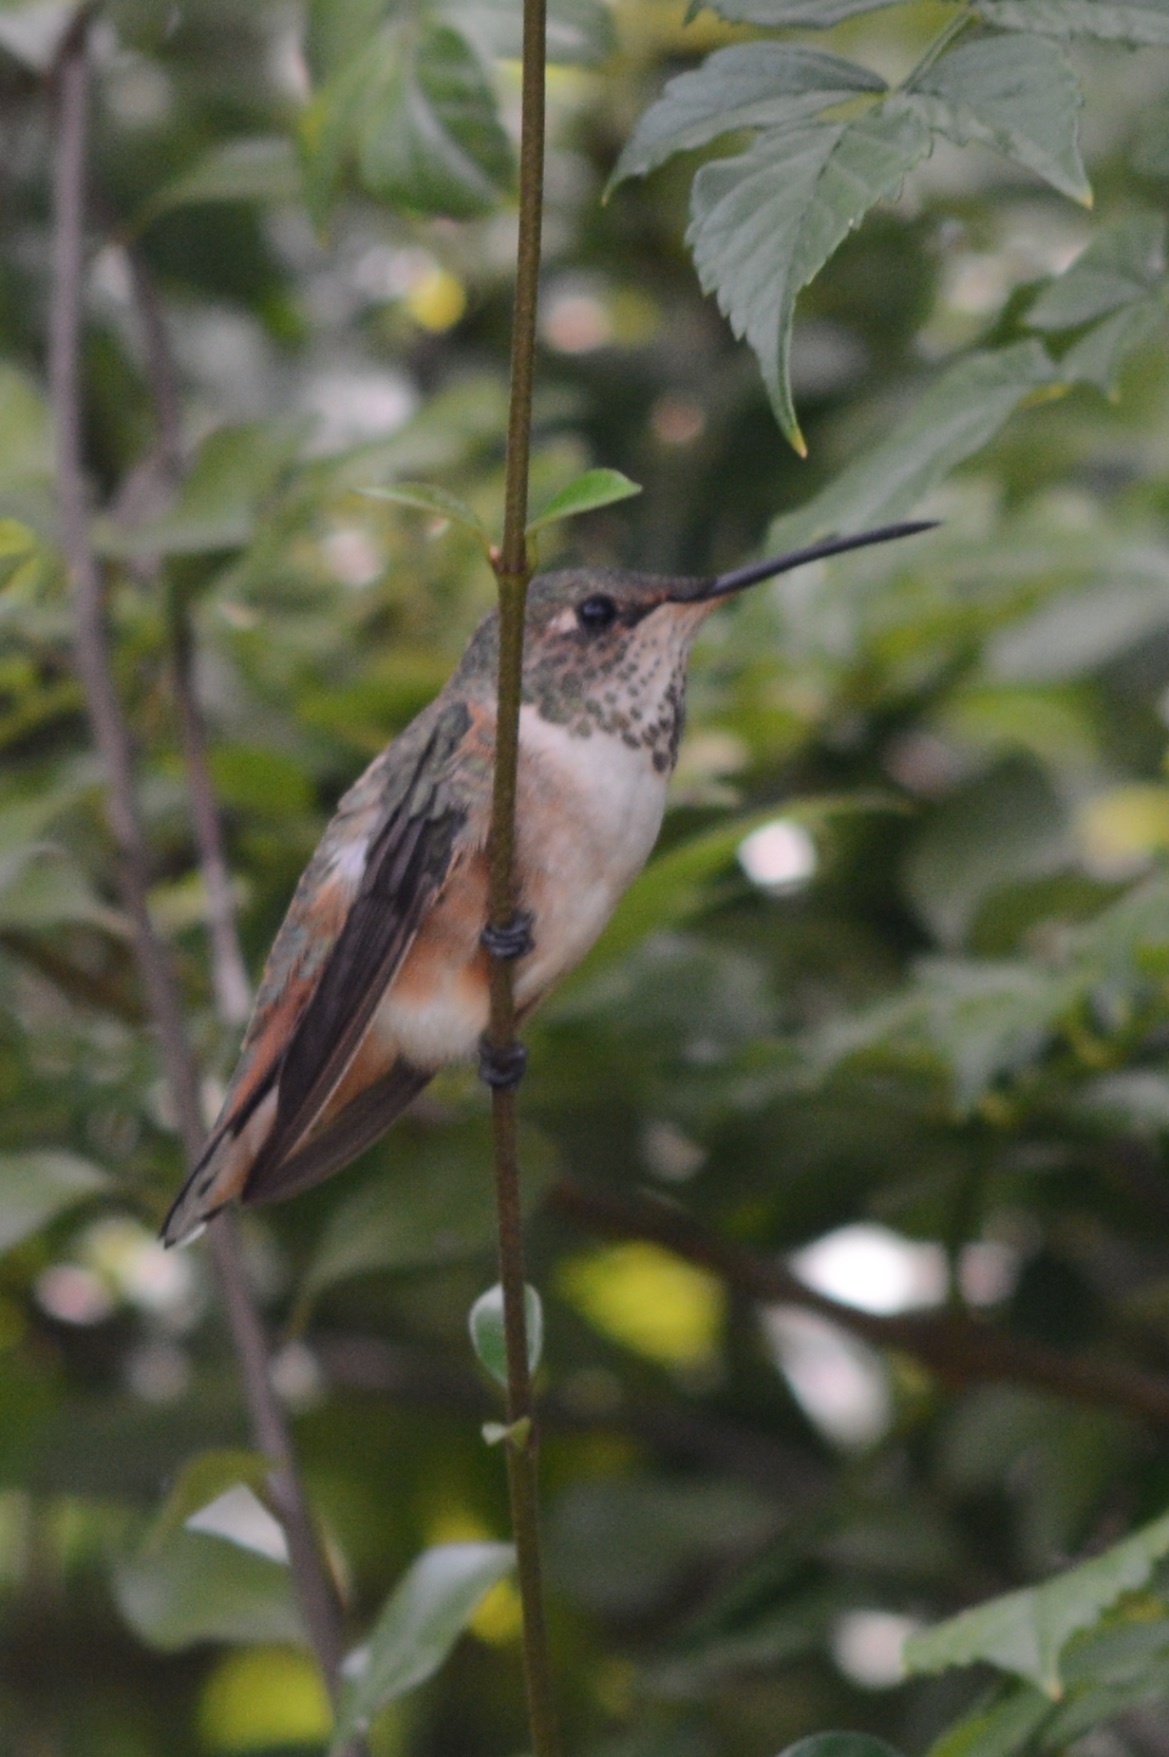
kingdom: Animalia
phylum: Chordata
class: Aves
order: Apodiformes
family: Trochilidae
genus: Selasphorus
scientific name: Selasphorus sasin
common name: Allen's hummingbird
